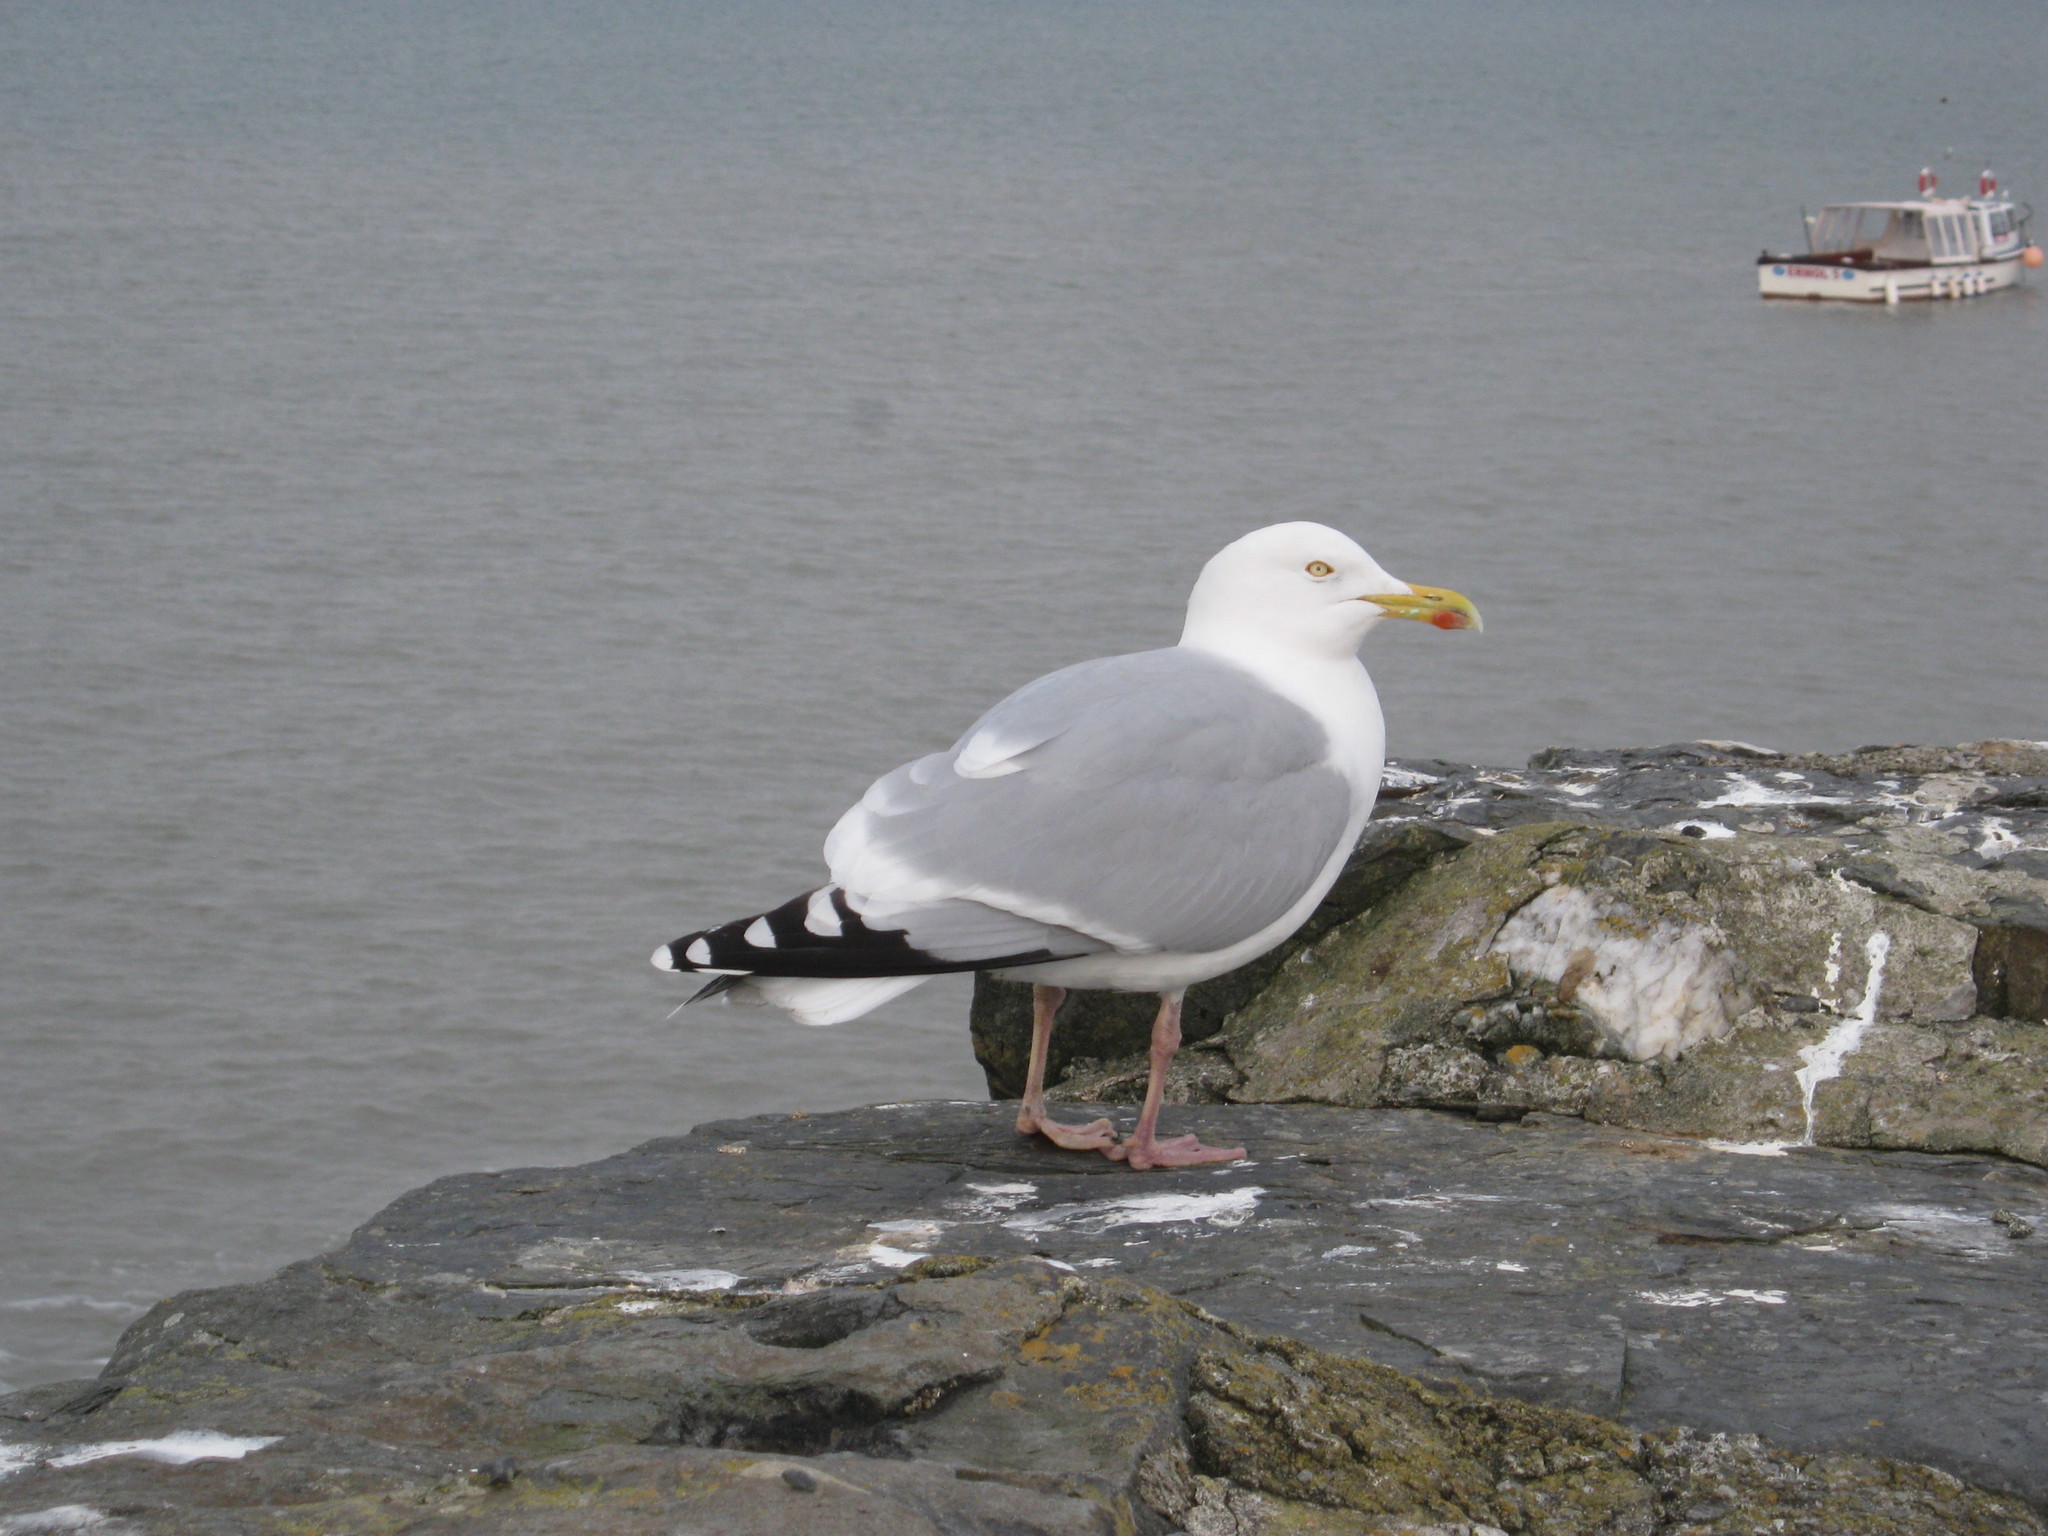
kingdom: Animalia
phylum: Chordata
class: Aves
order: Charadriiformes
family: Laridae
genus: Larus
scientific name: Larus argentatus
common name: Herring gull
